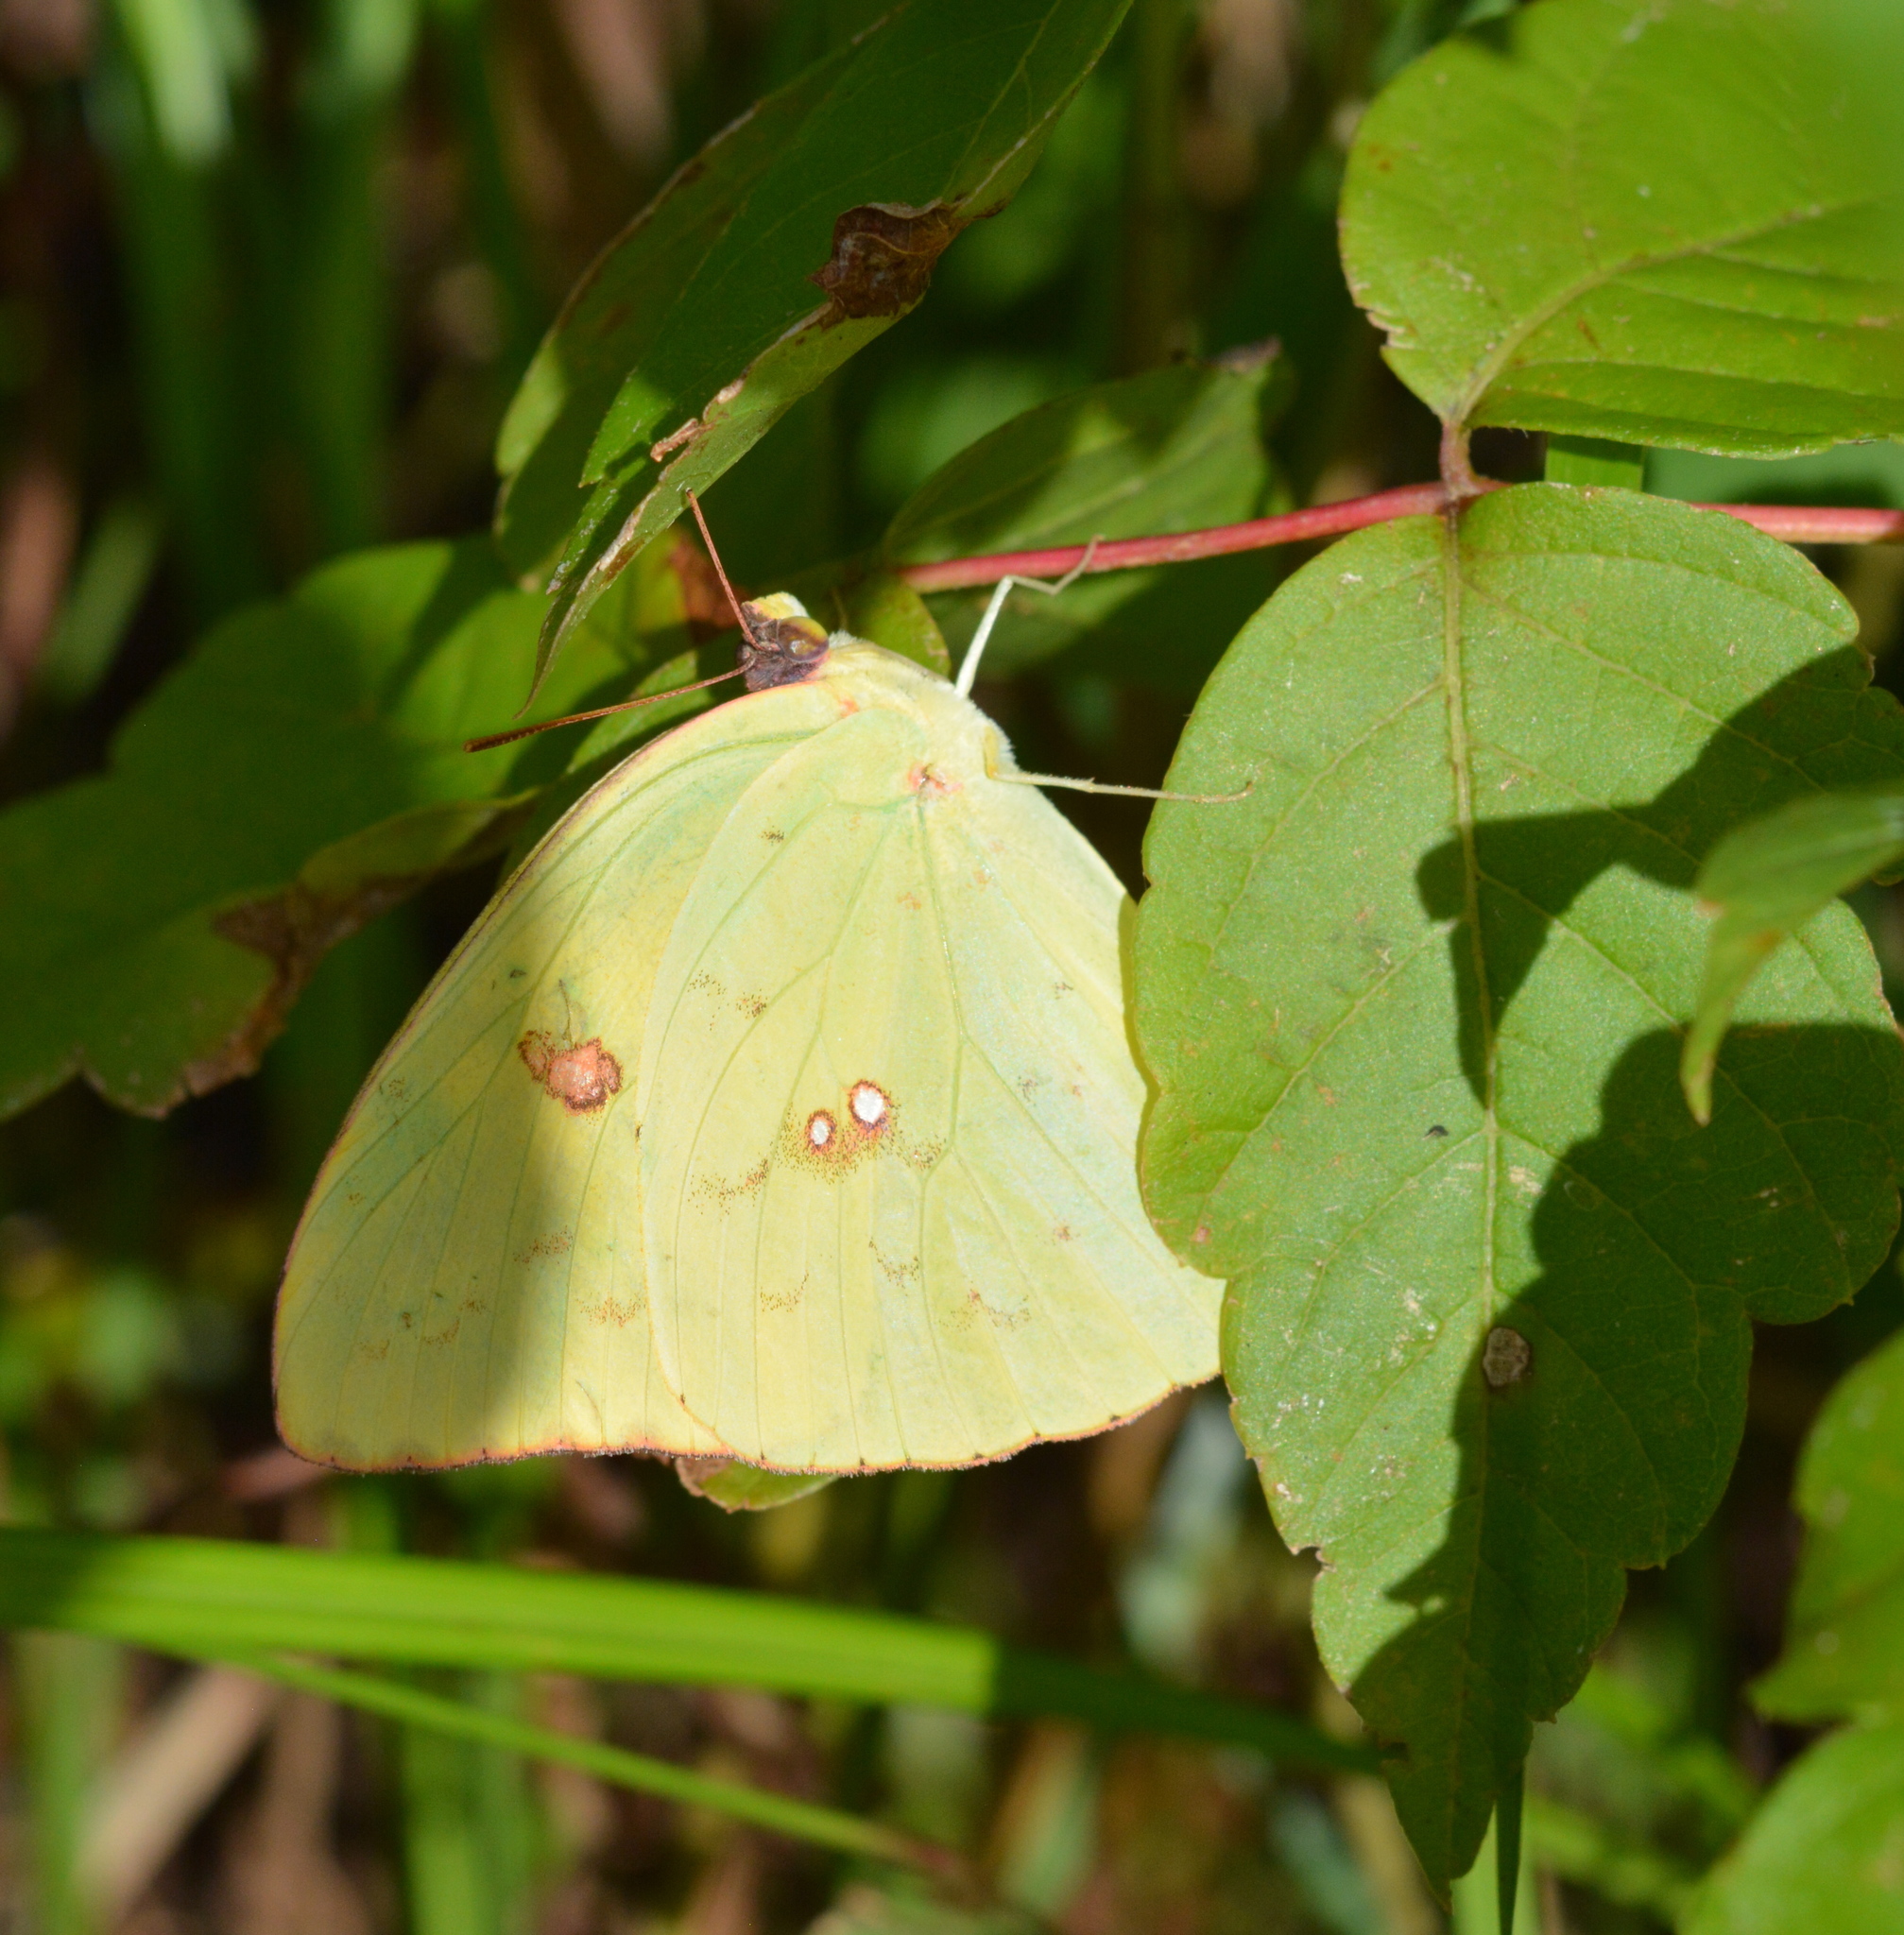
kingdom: Animalia
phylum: Arthropoda
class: Insecta
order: Lepidoptera
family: Pieridae
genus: Phoebis
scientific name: Phoebis sennae
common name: Cloudless sulphur
